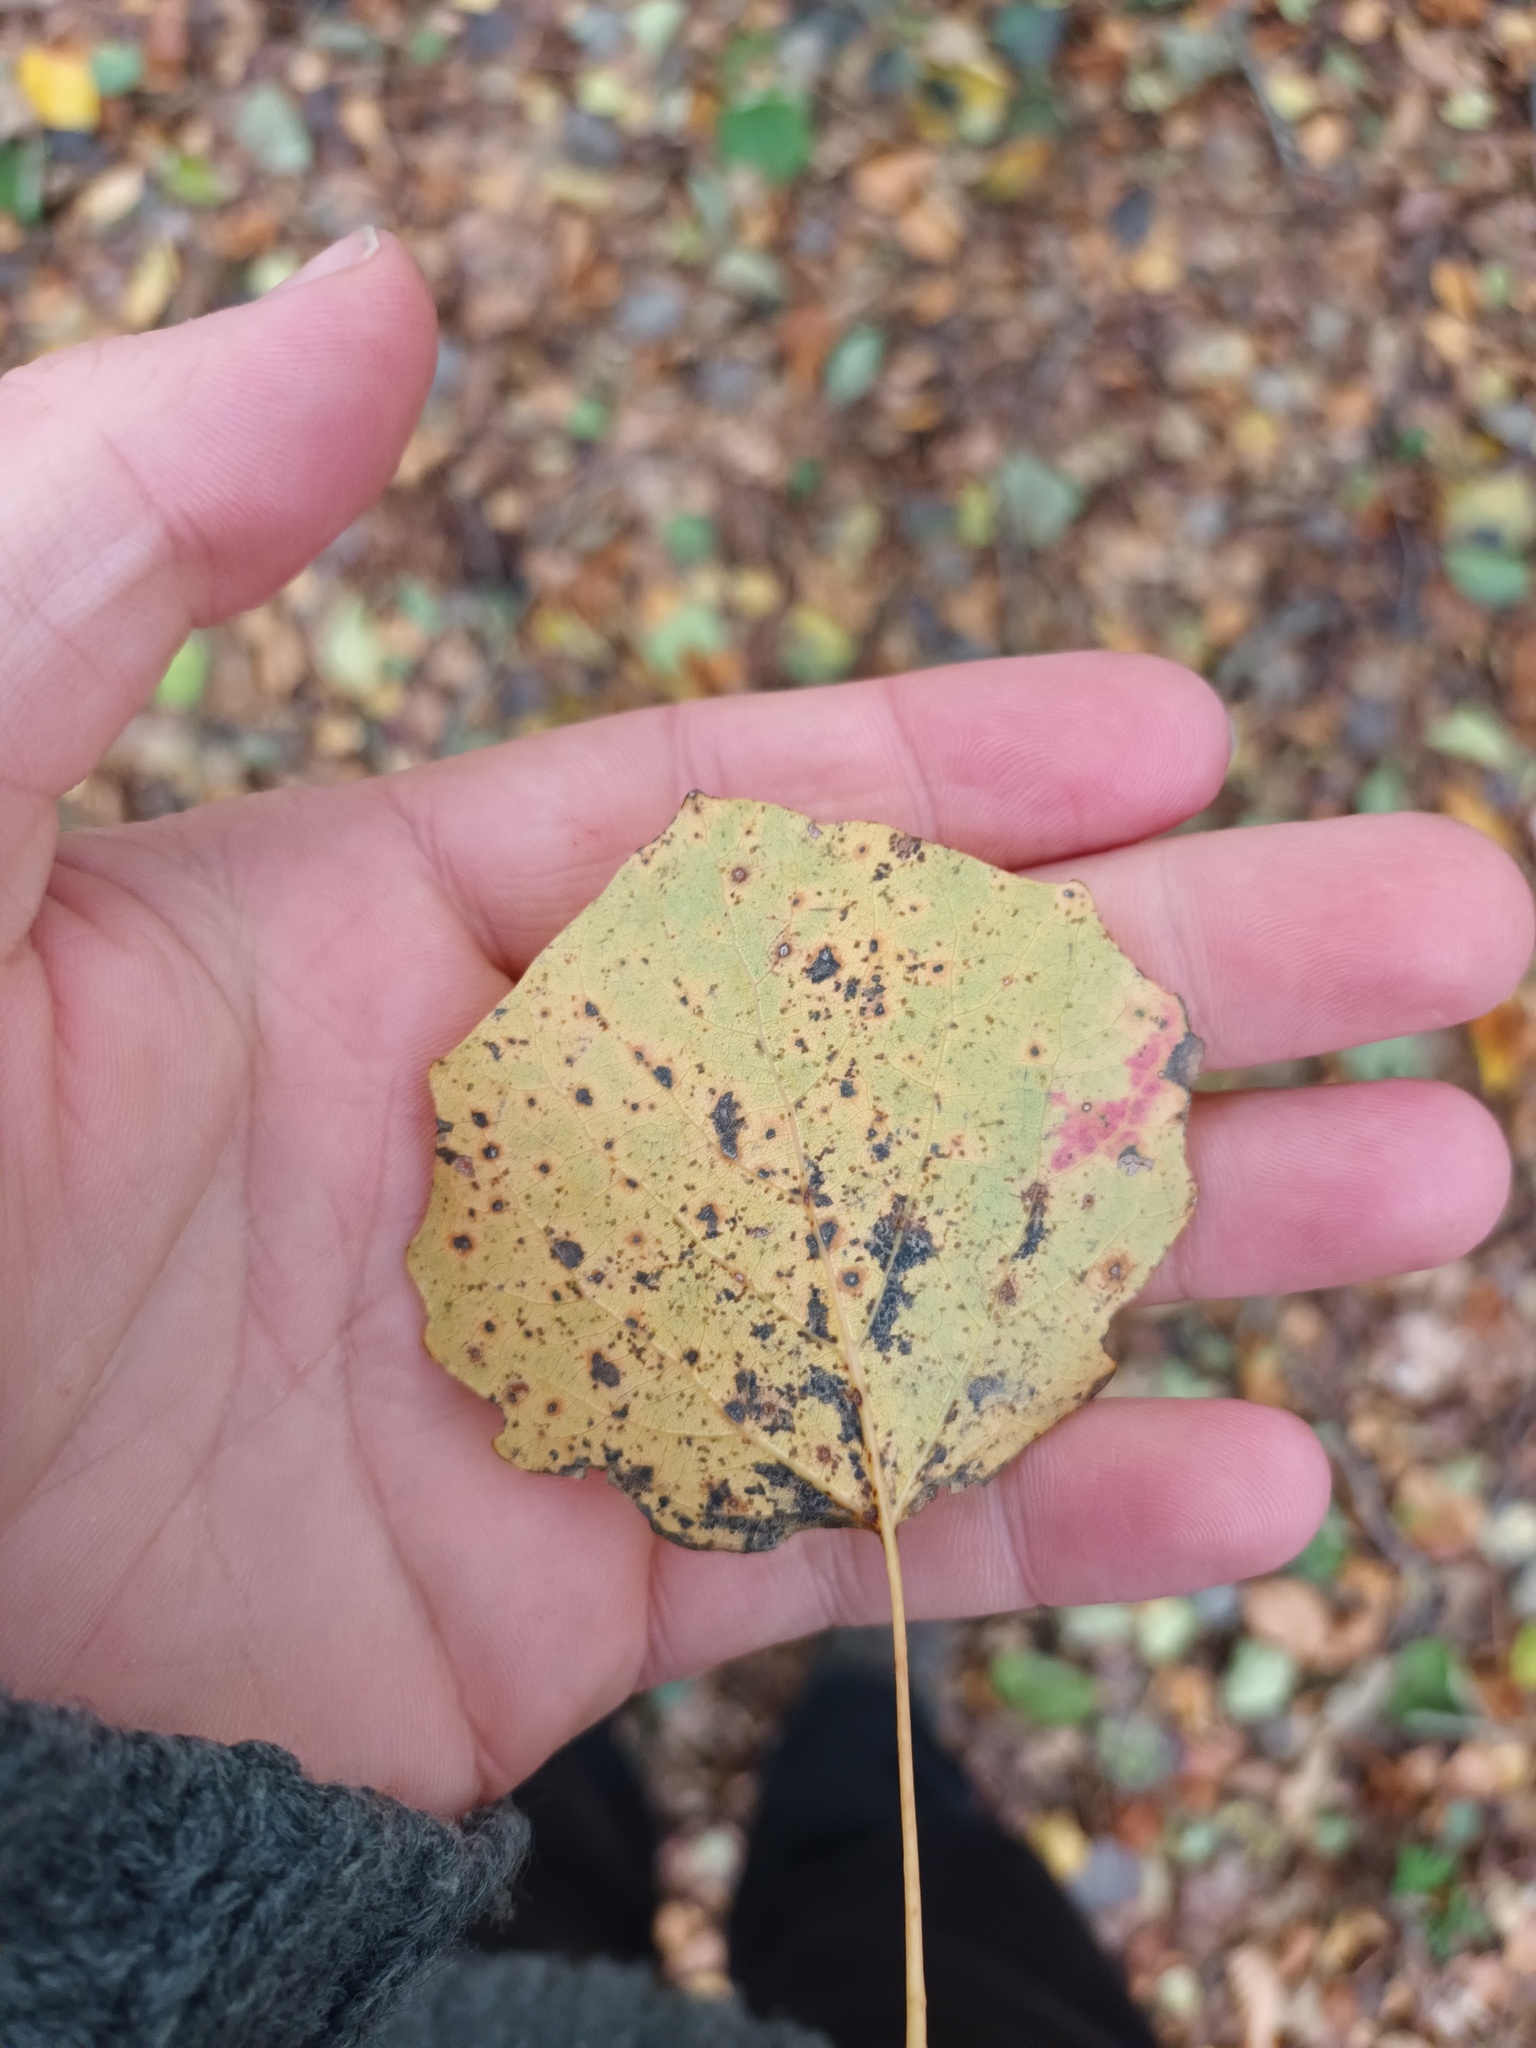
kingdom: Plantae
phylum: Tracheophyta
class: Magnoliopsida
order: Malpighiales
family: Salicaceae
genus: Populus
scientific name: Populus tremula
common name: European aspen
